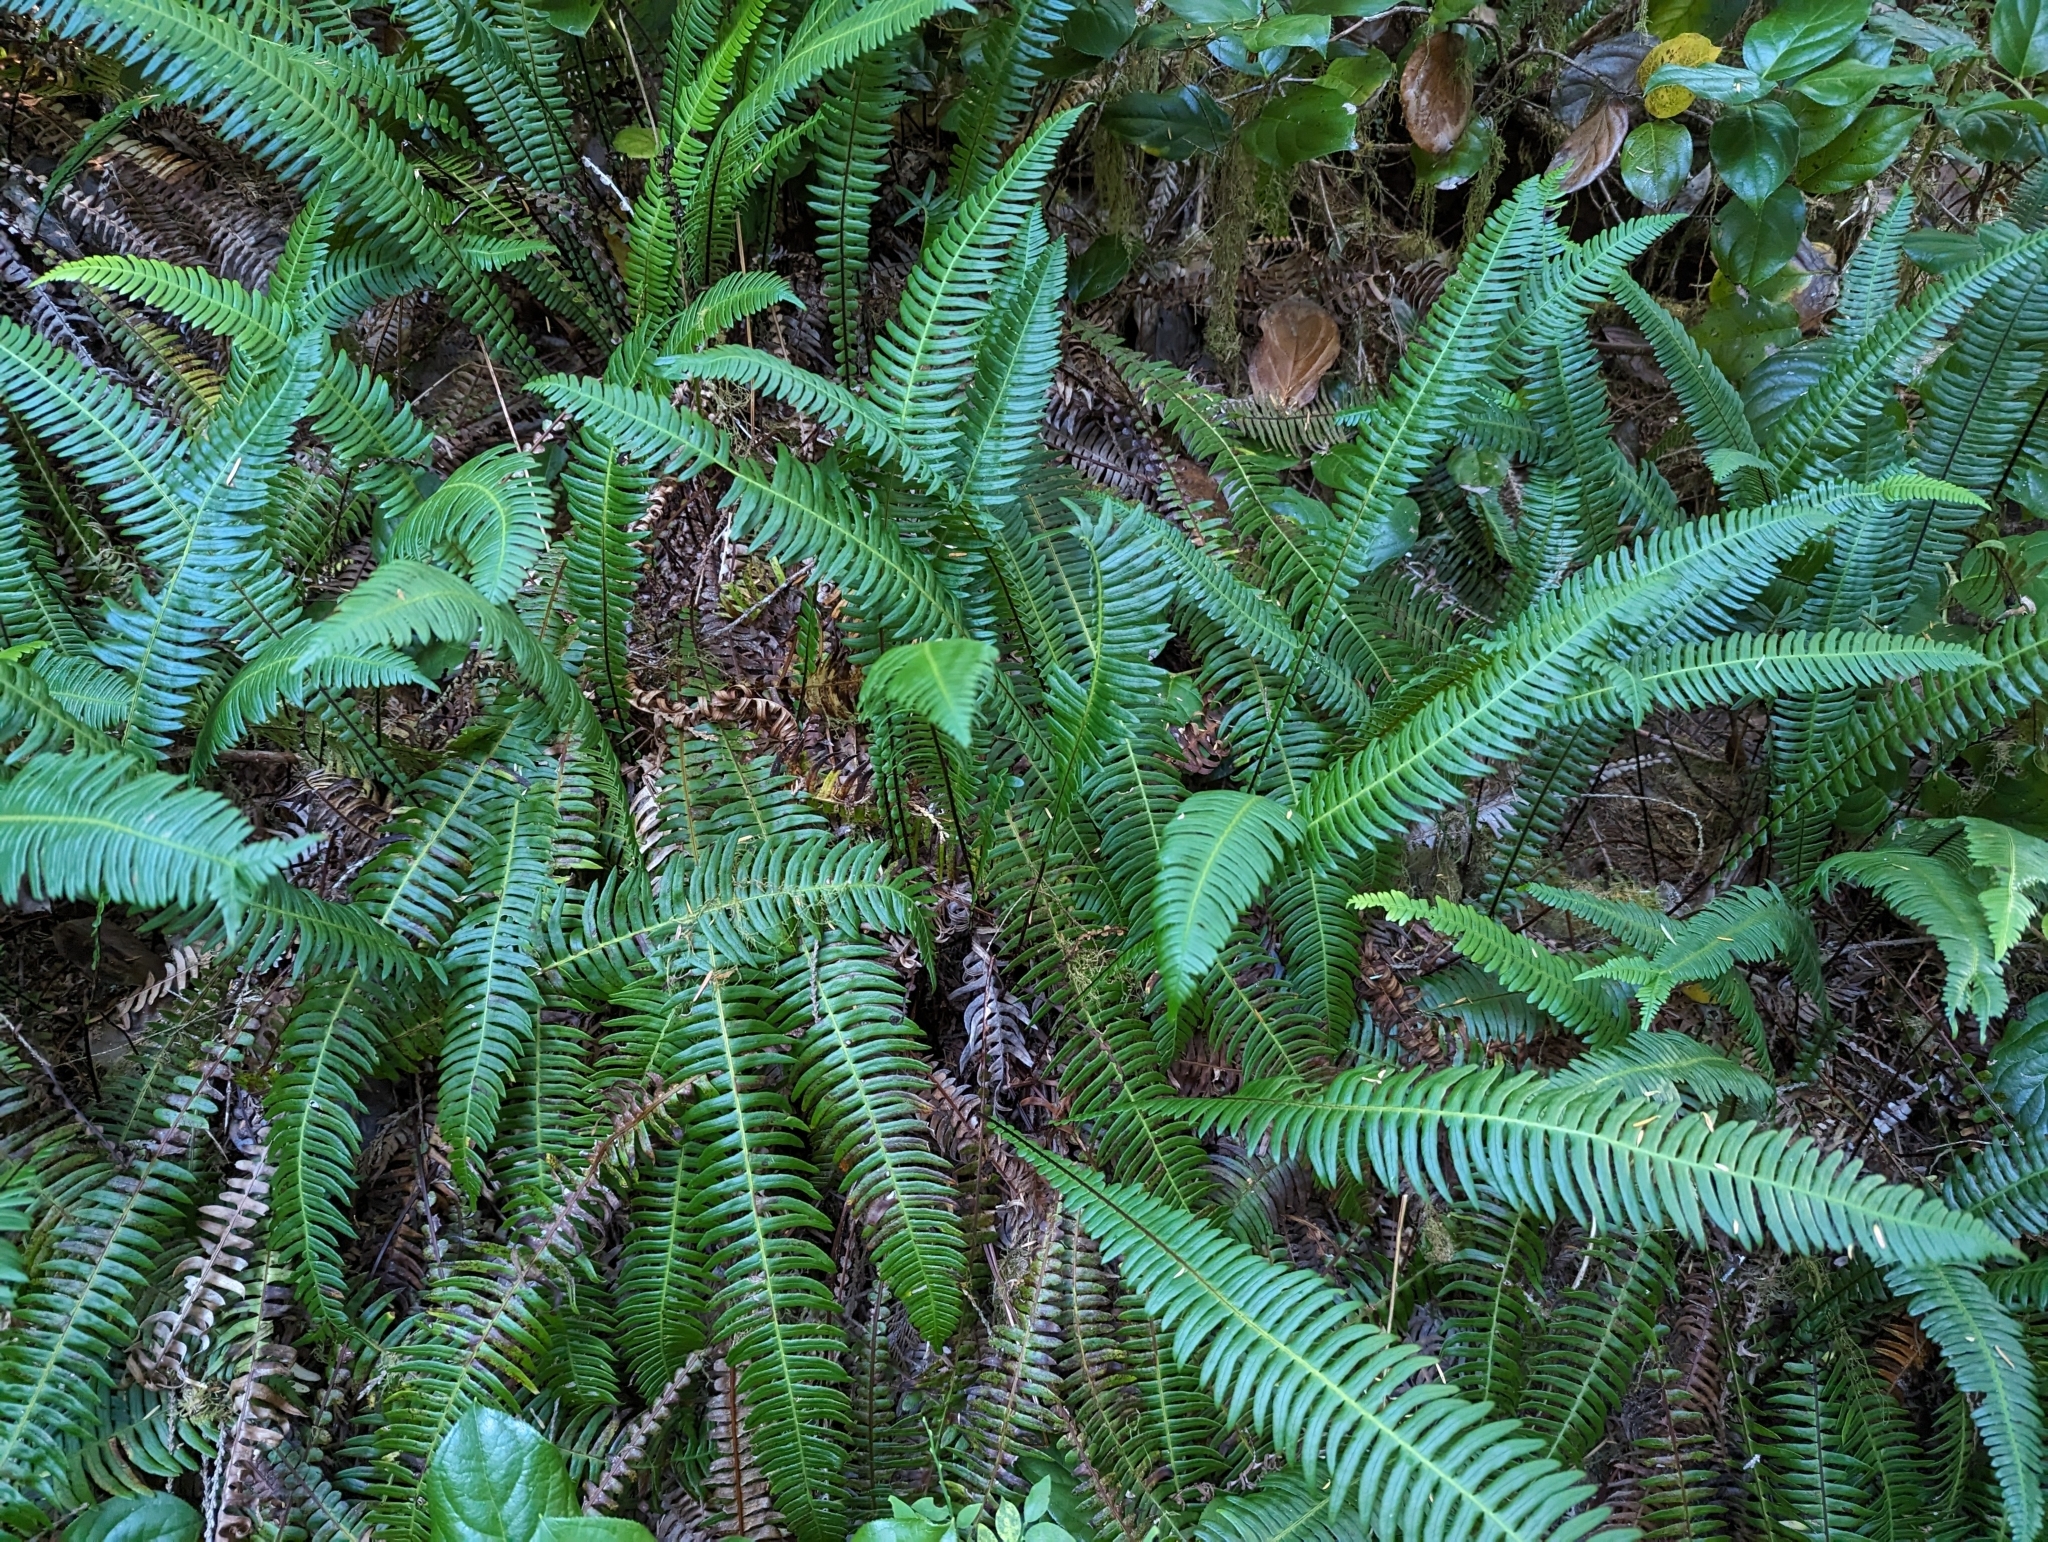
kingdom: Plantae
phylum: Tracheophyta
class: Polypodiopsida
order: Polypodiales
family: Blechnaceae
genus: Struthiopteris
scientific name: Struthiopteris spicant
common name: Deer fern
